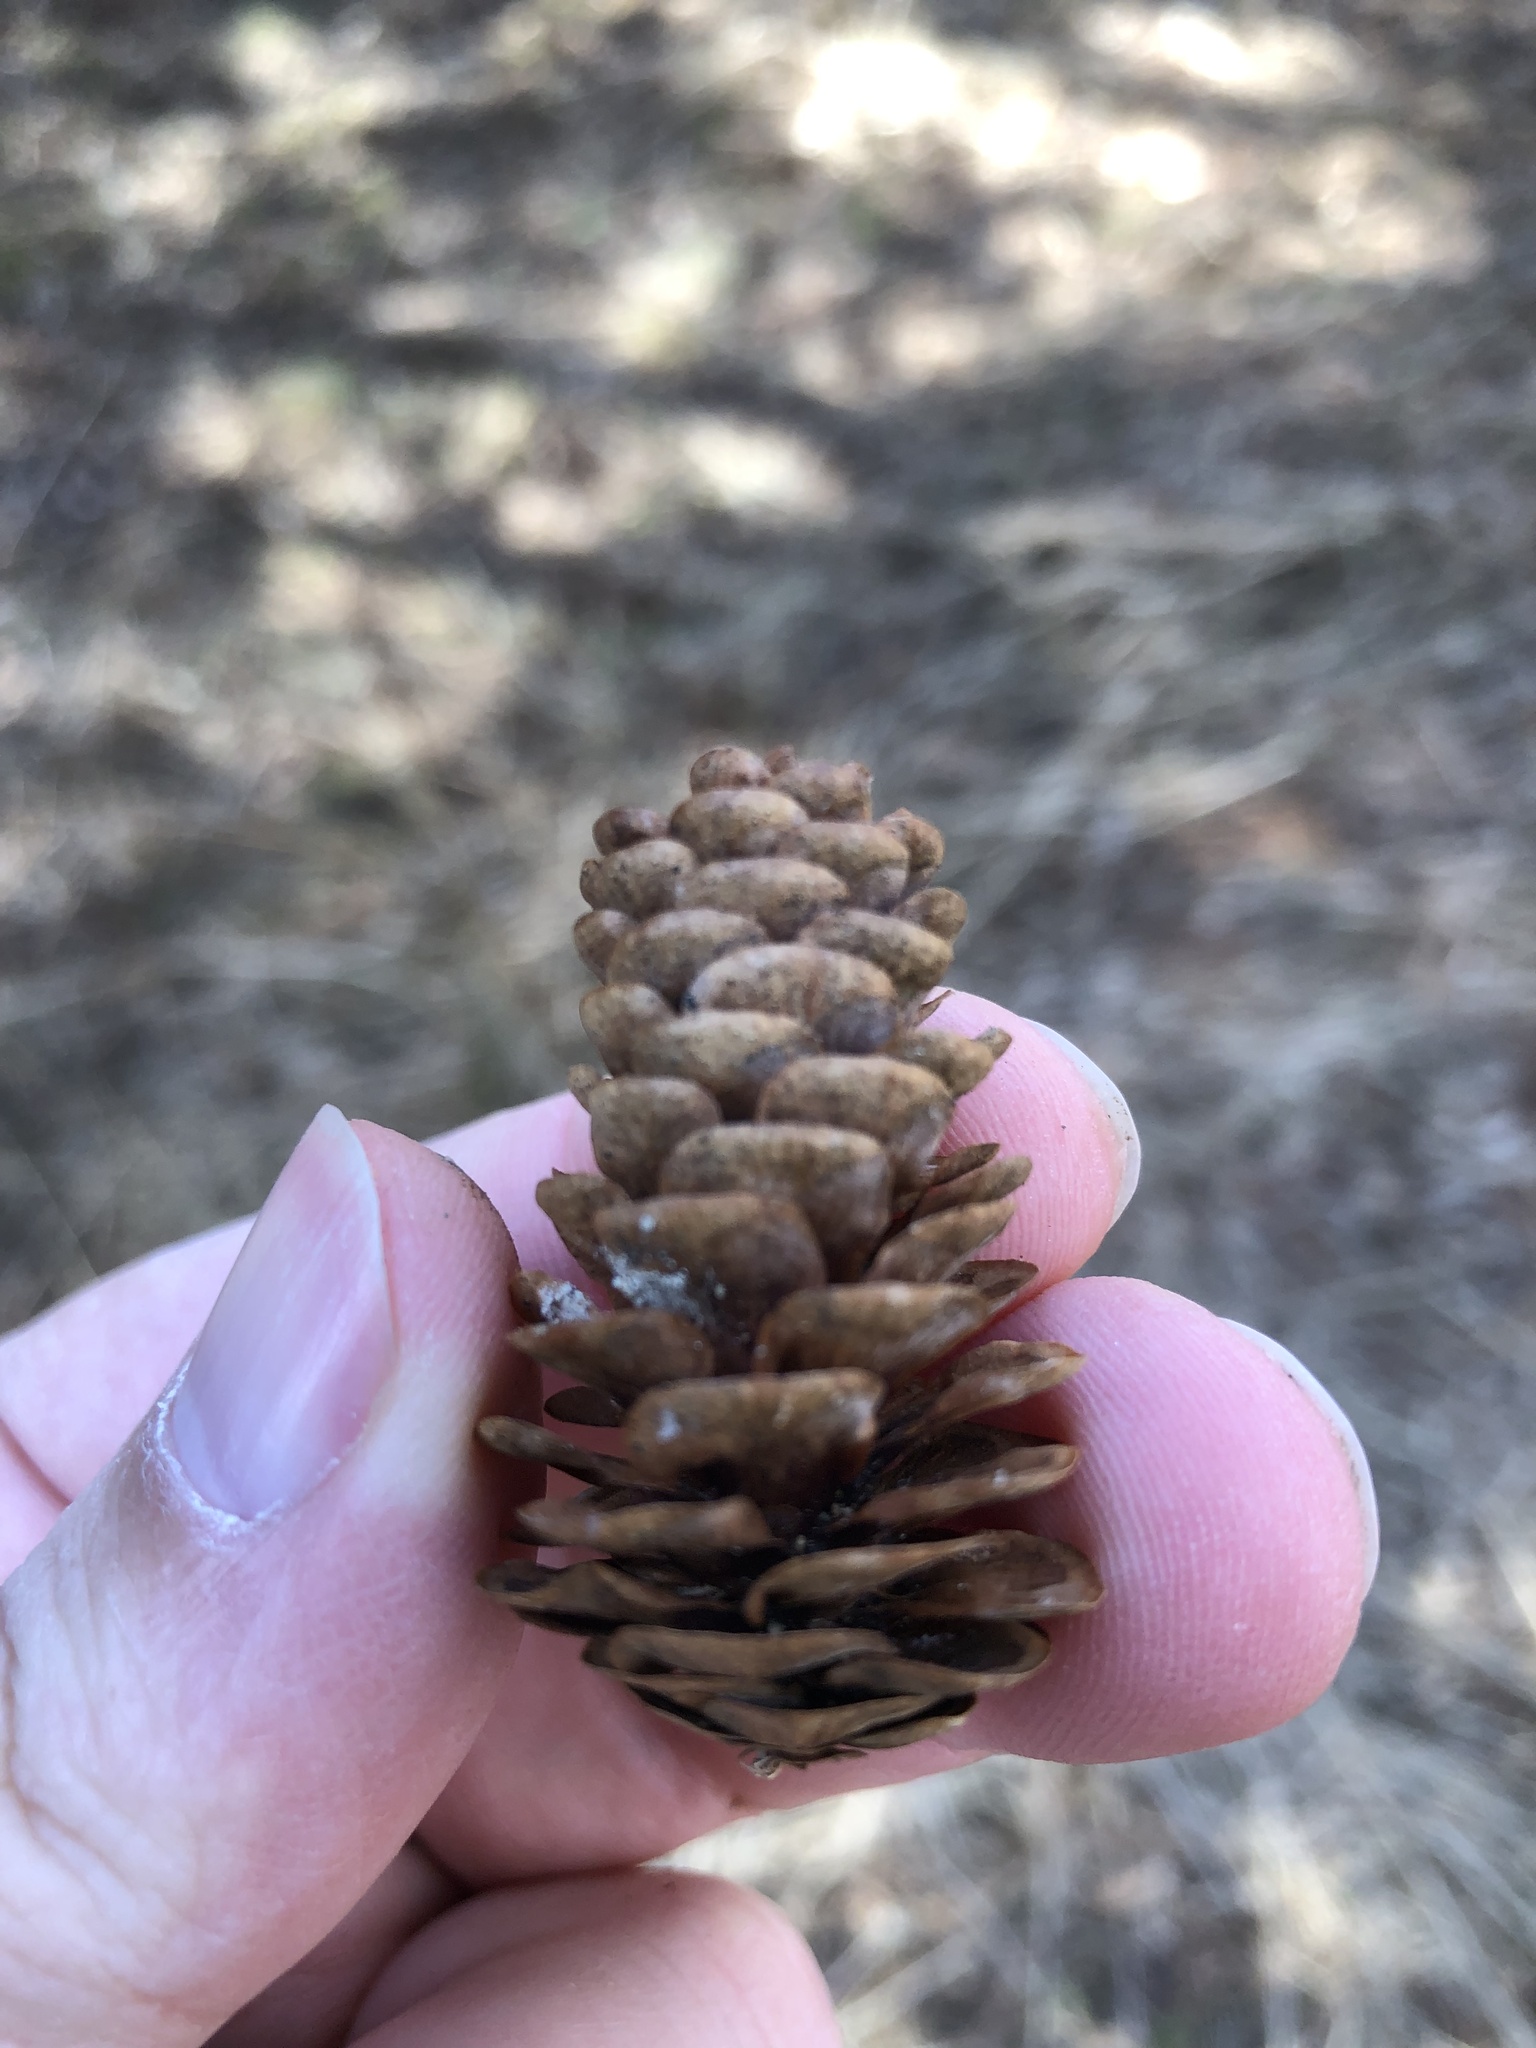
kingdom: Plantae
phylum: Tracheophyta
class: Pinopsida
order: Pinales
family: Pinaceae
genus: Picea
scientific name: Picea glauca
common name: White spruce
